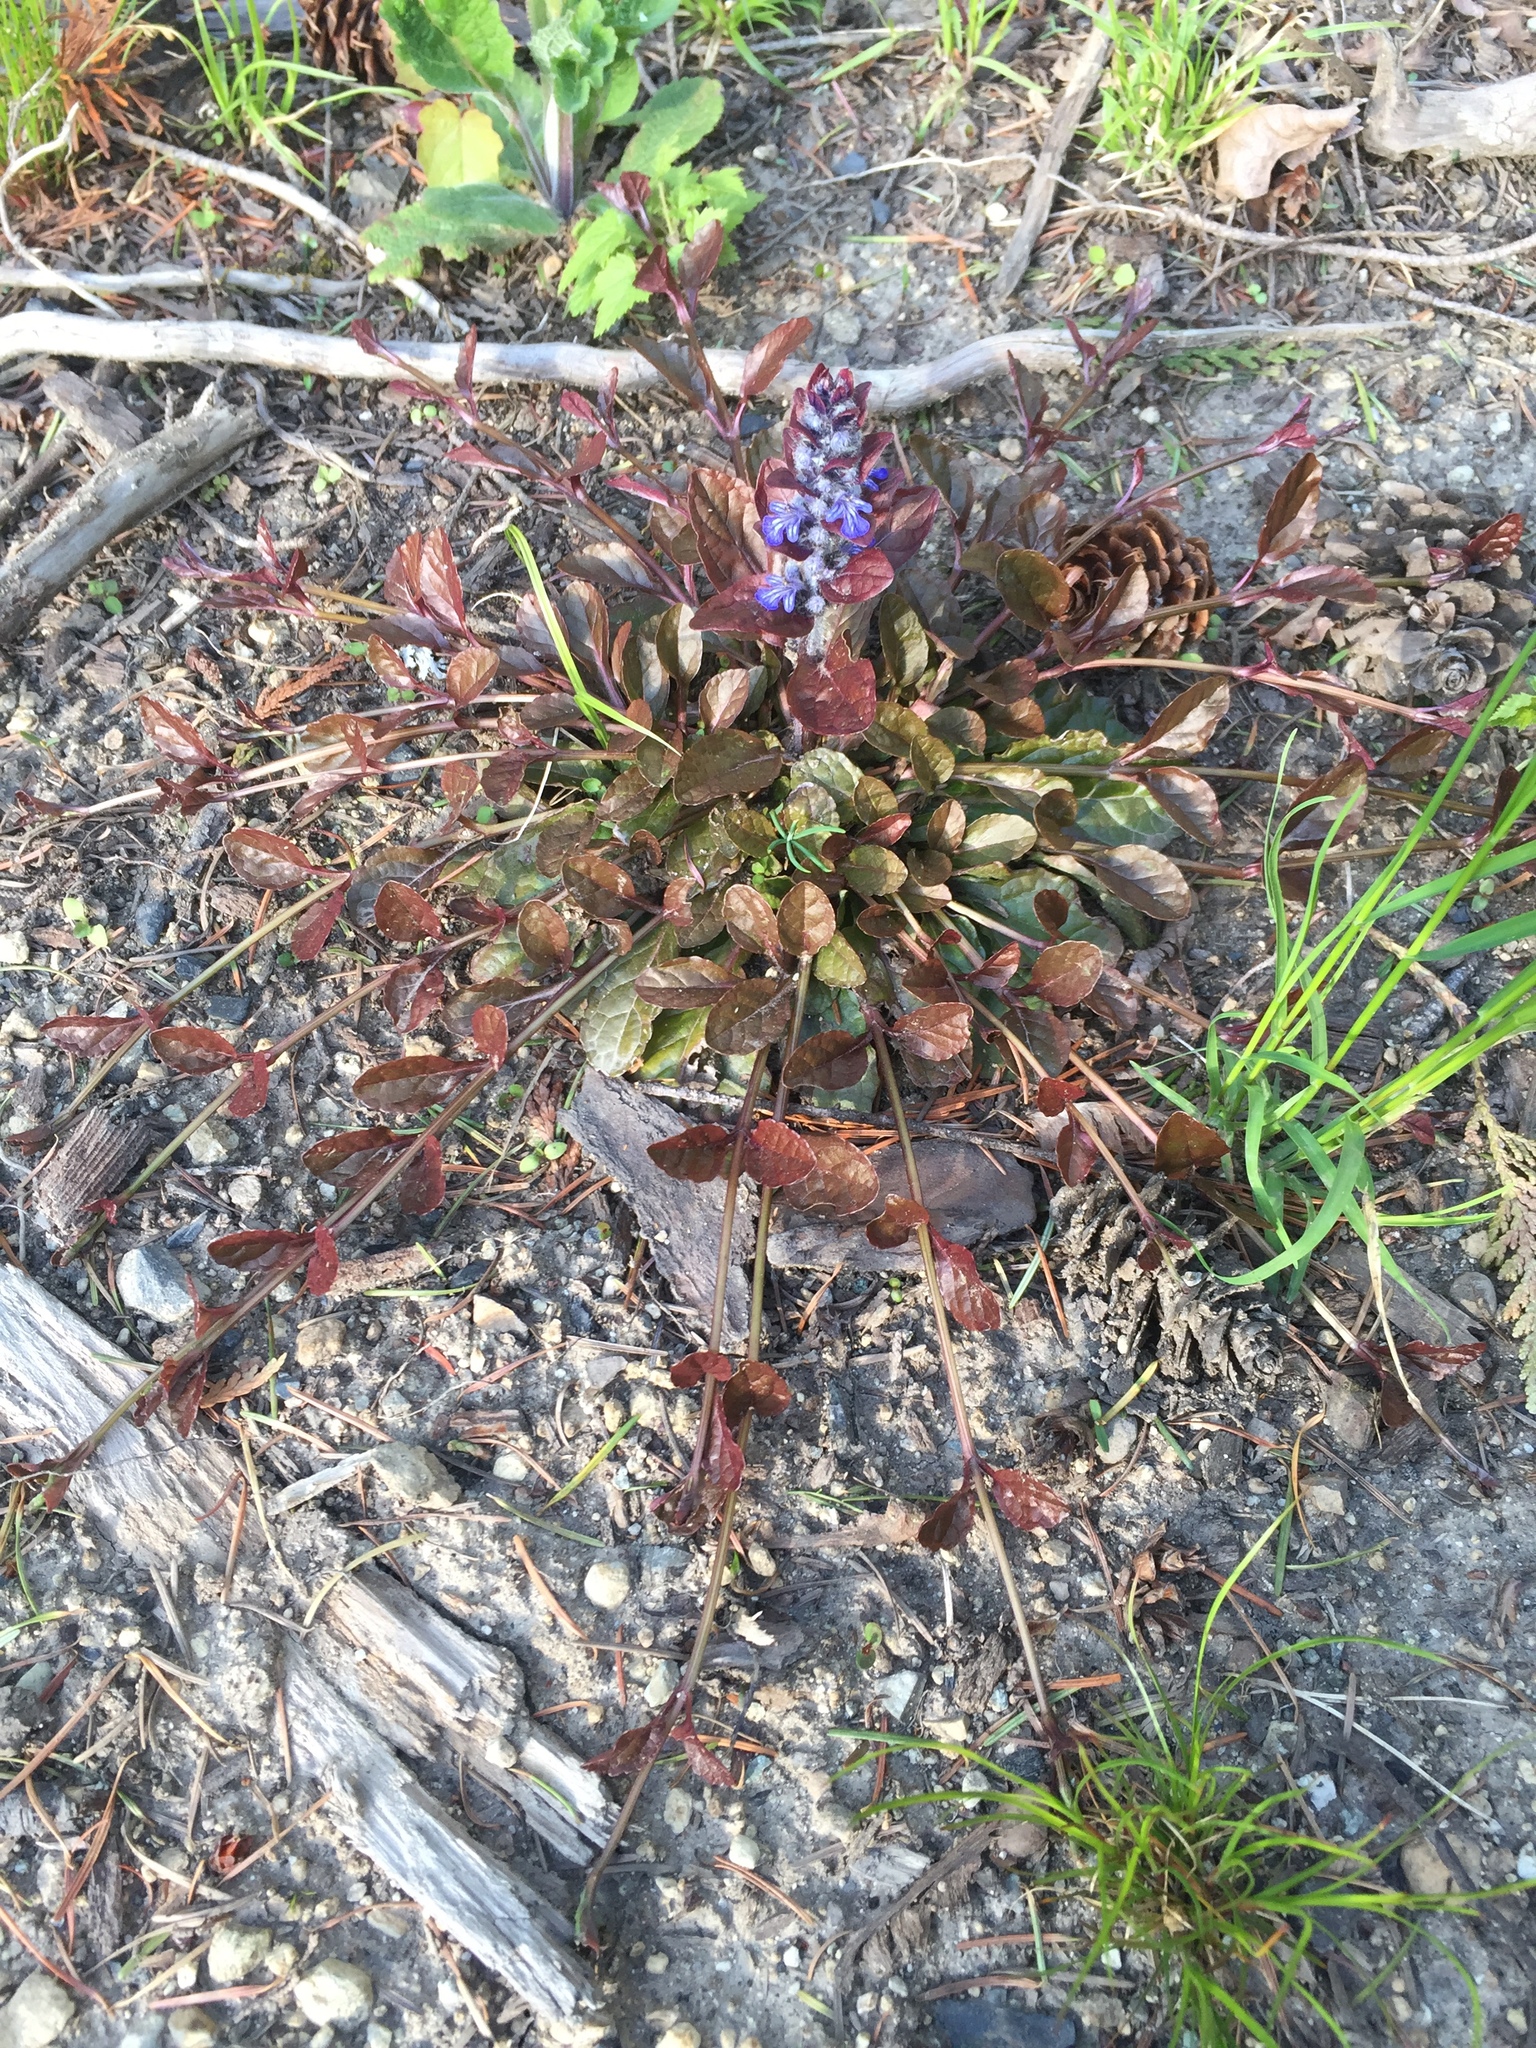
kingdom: Plantae
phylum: Tracheophyta
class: Magnoliopsida
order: Lamiales
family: Lamiaceae
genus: Ajuga
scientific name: Ajuga reptans
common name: Bugle
